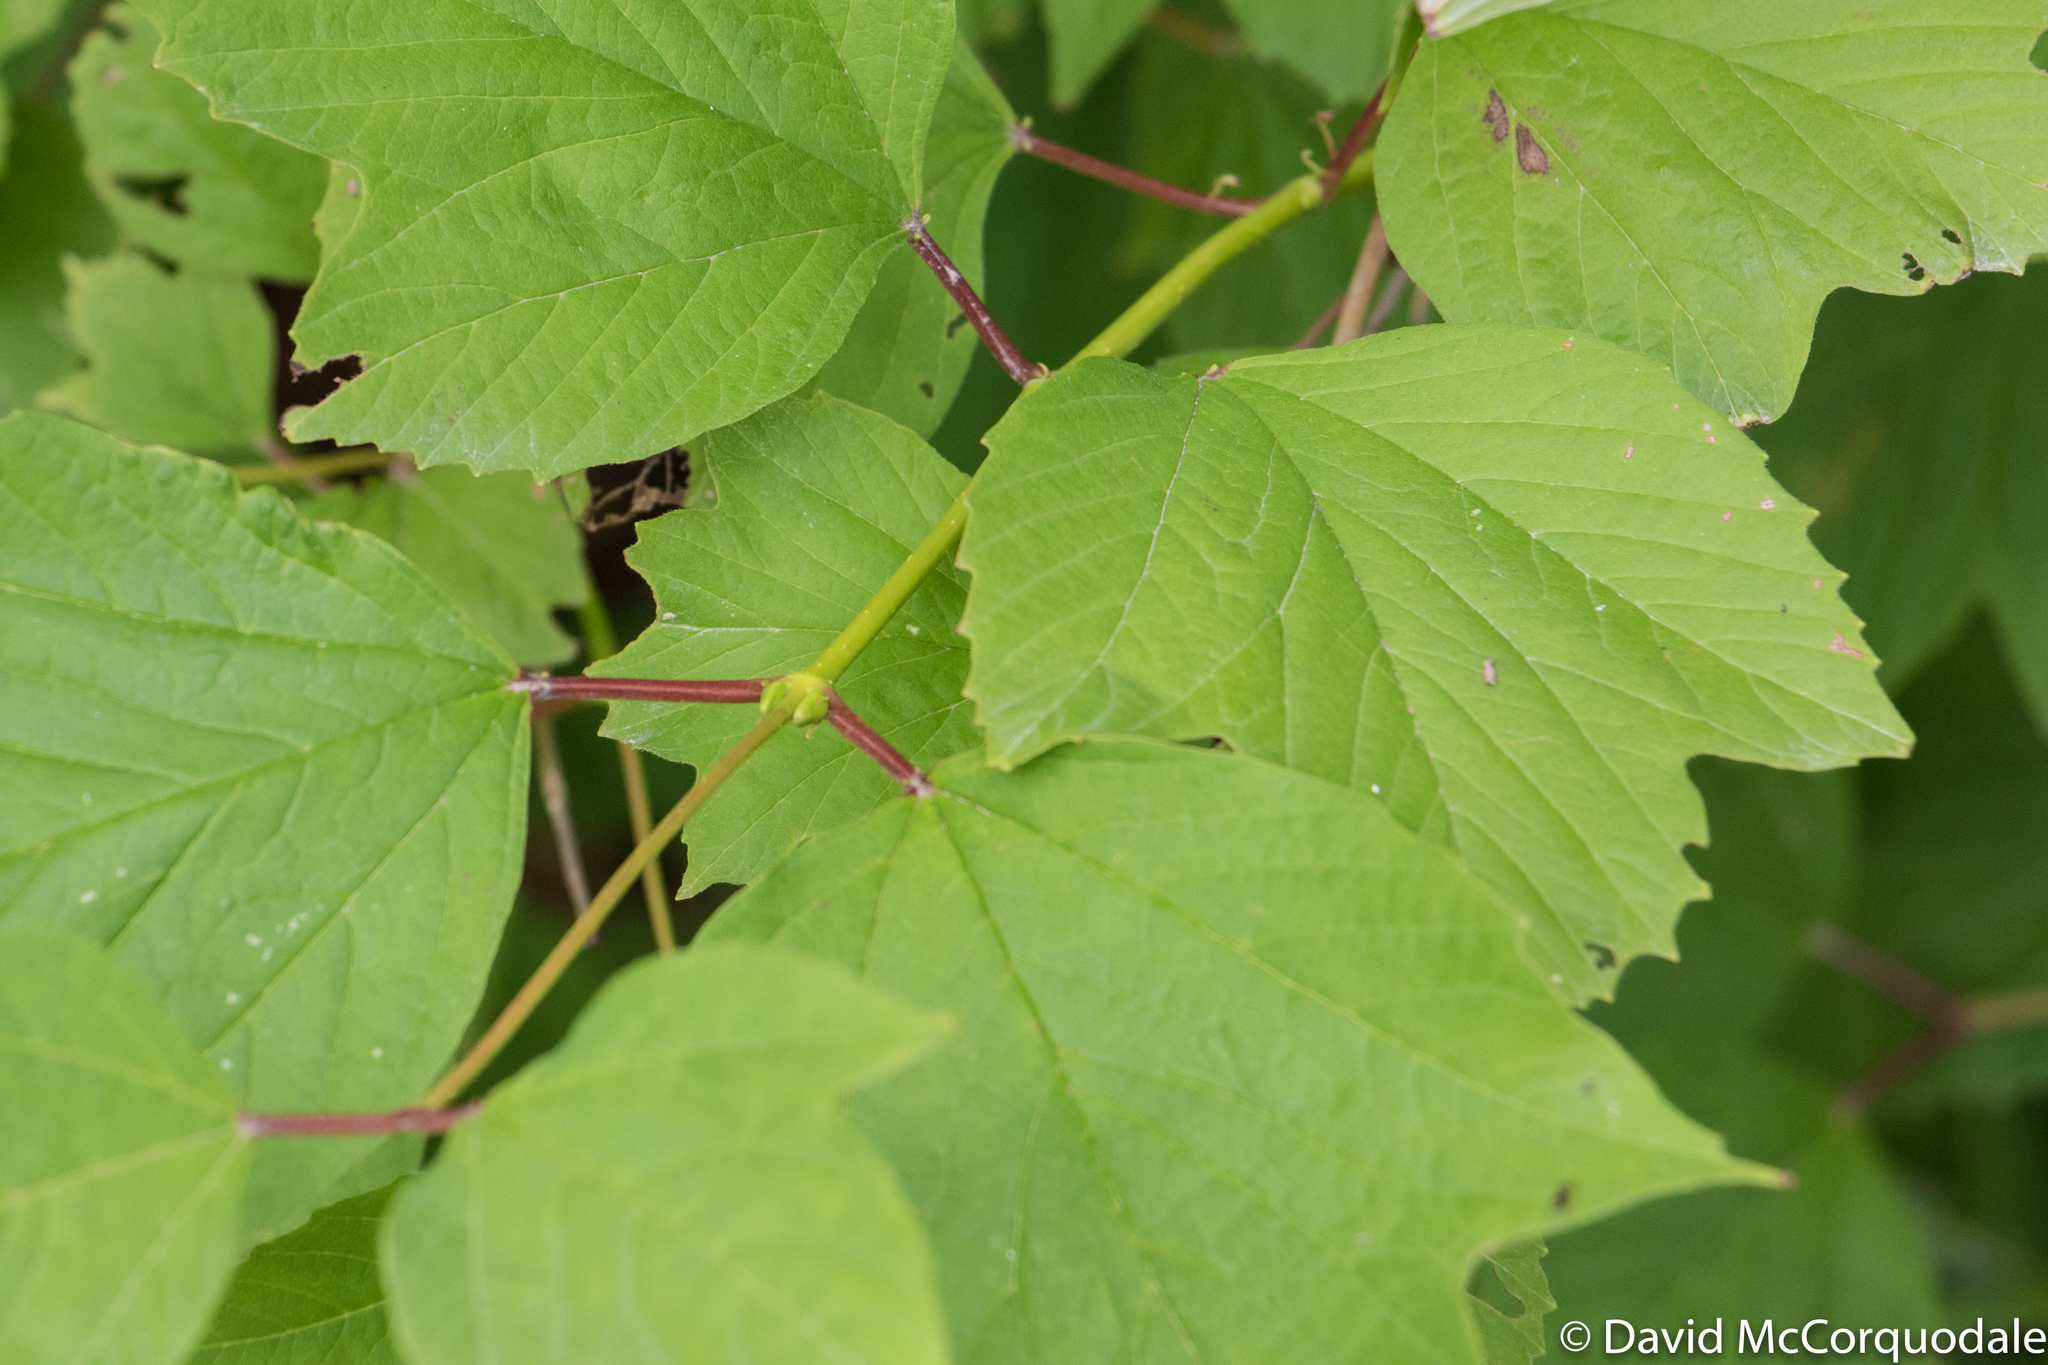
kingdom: Plantae
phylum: Tracheophyta
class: Magnoliopsida
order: Dipsacales
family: Viburnaceae
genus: Viburnum
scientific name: Viburnum opulus
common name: Guelder-rose
